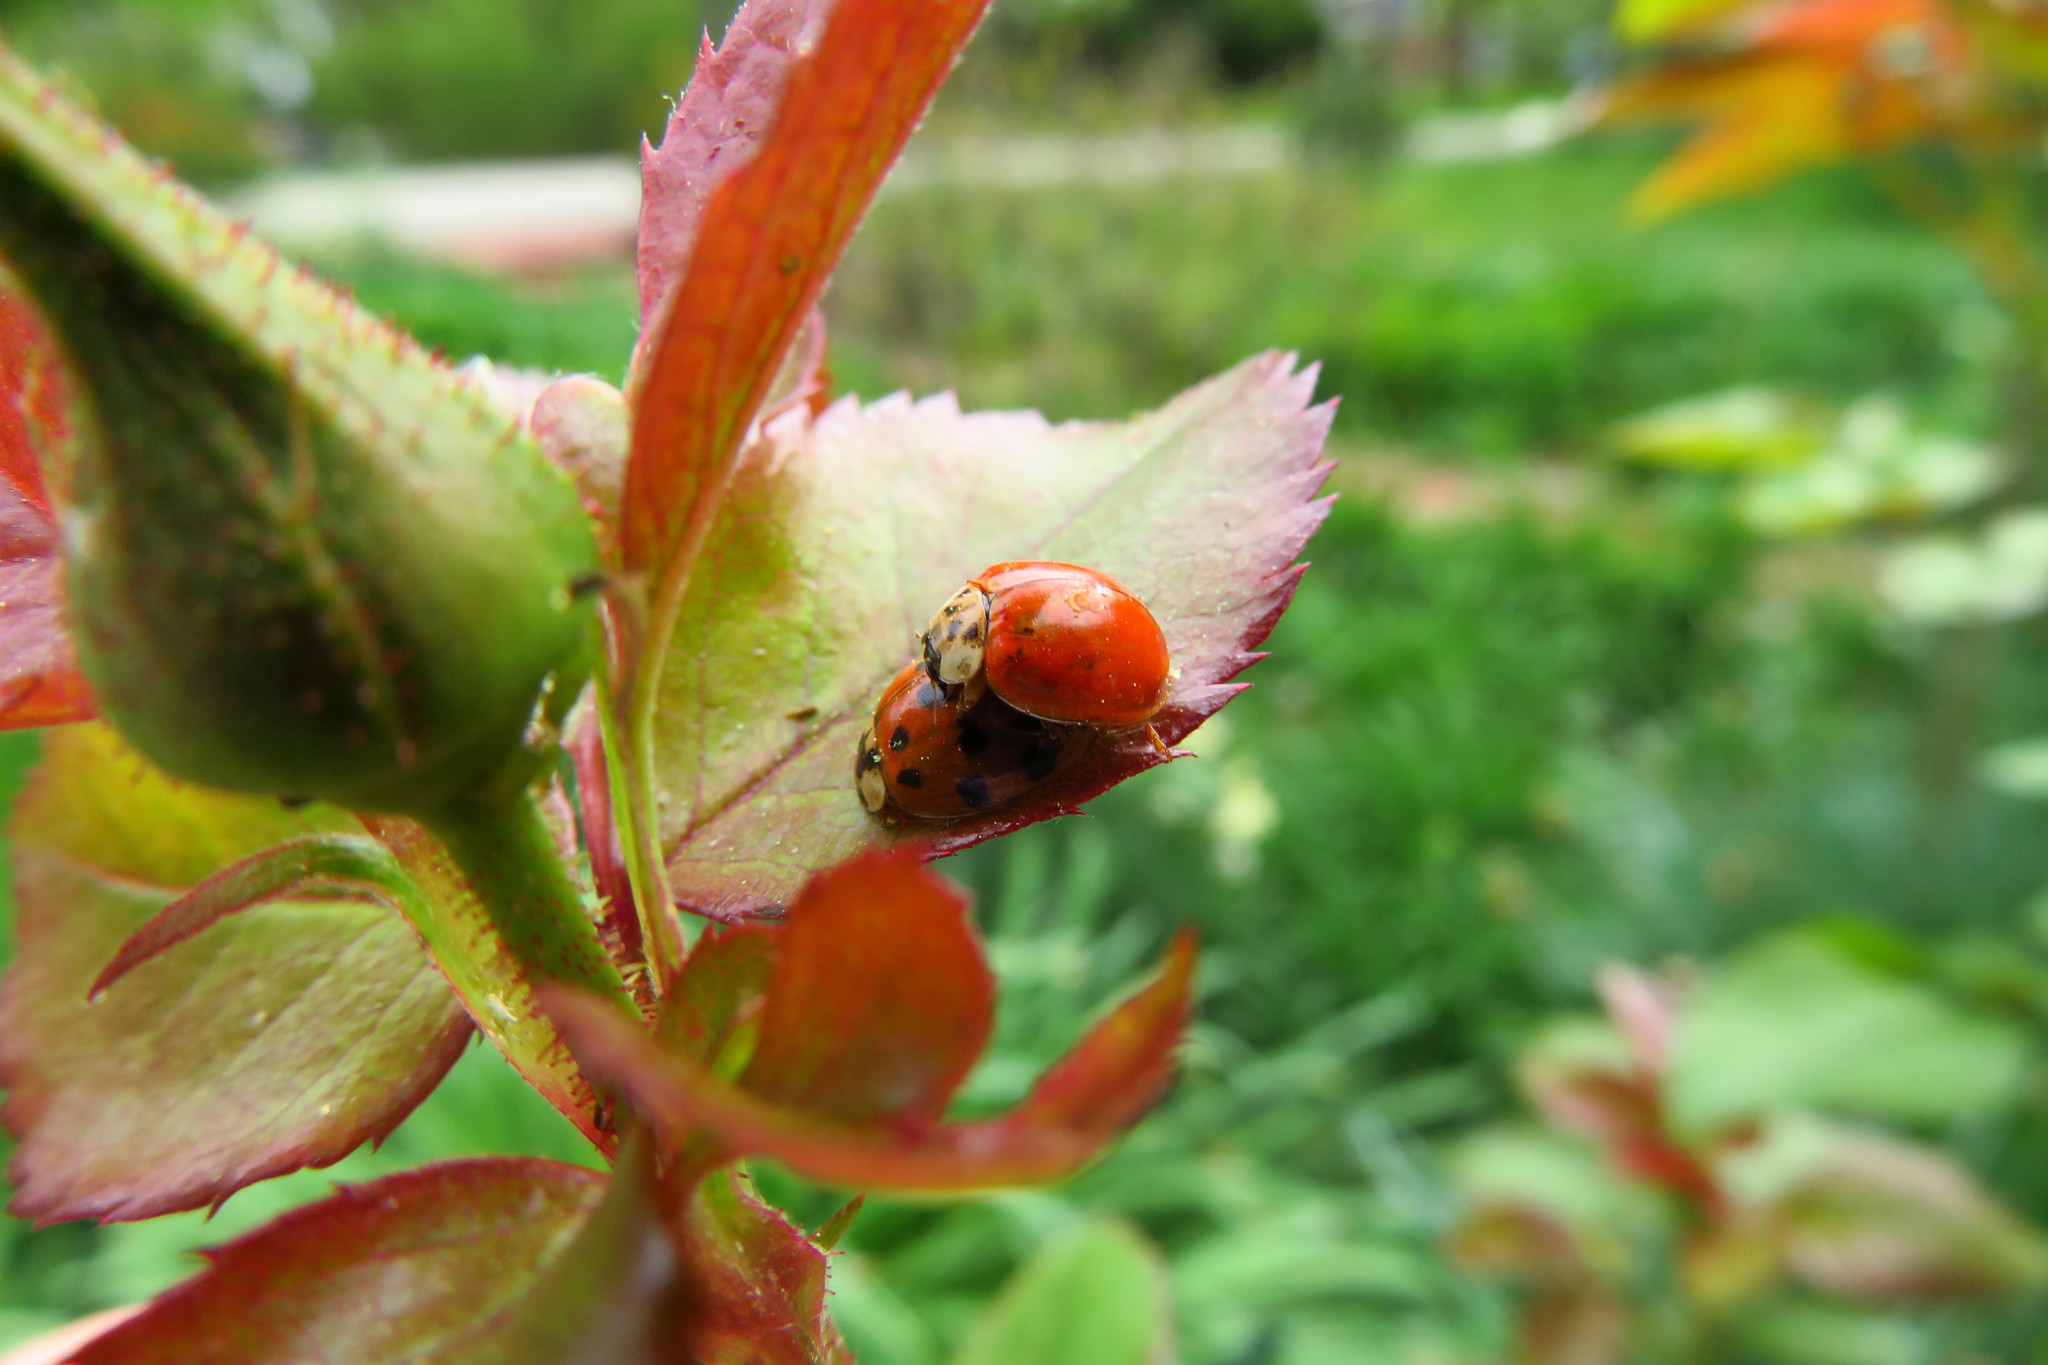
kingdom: Animalia
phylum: Arthropoda
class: Insecta
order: Coleoptera
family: Coccinellidae
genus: Harmonia
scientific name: Harmonia axyridis
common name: Harlequin ladybird
